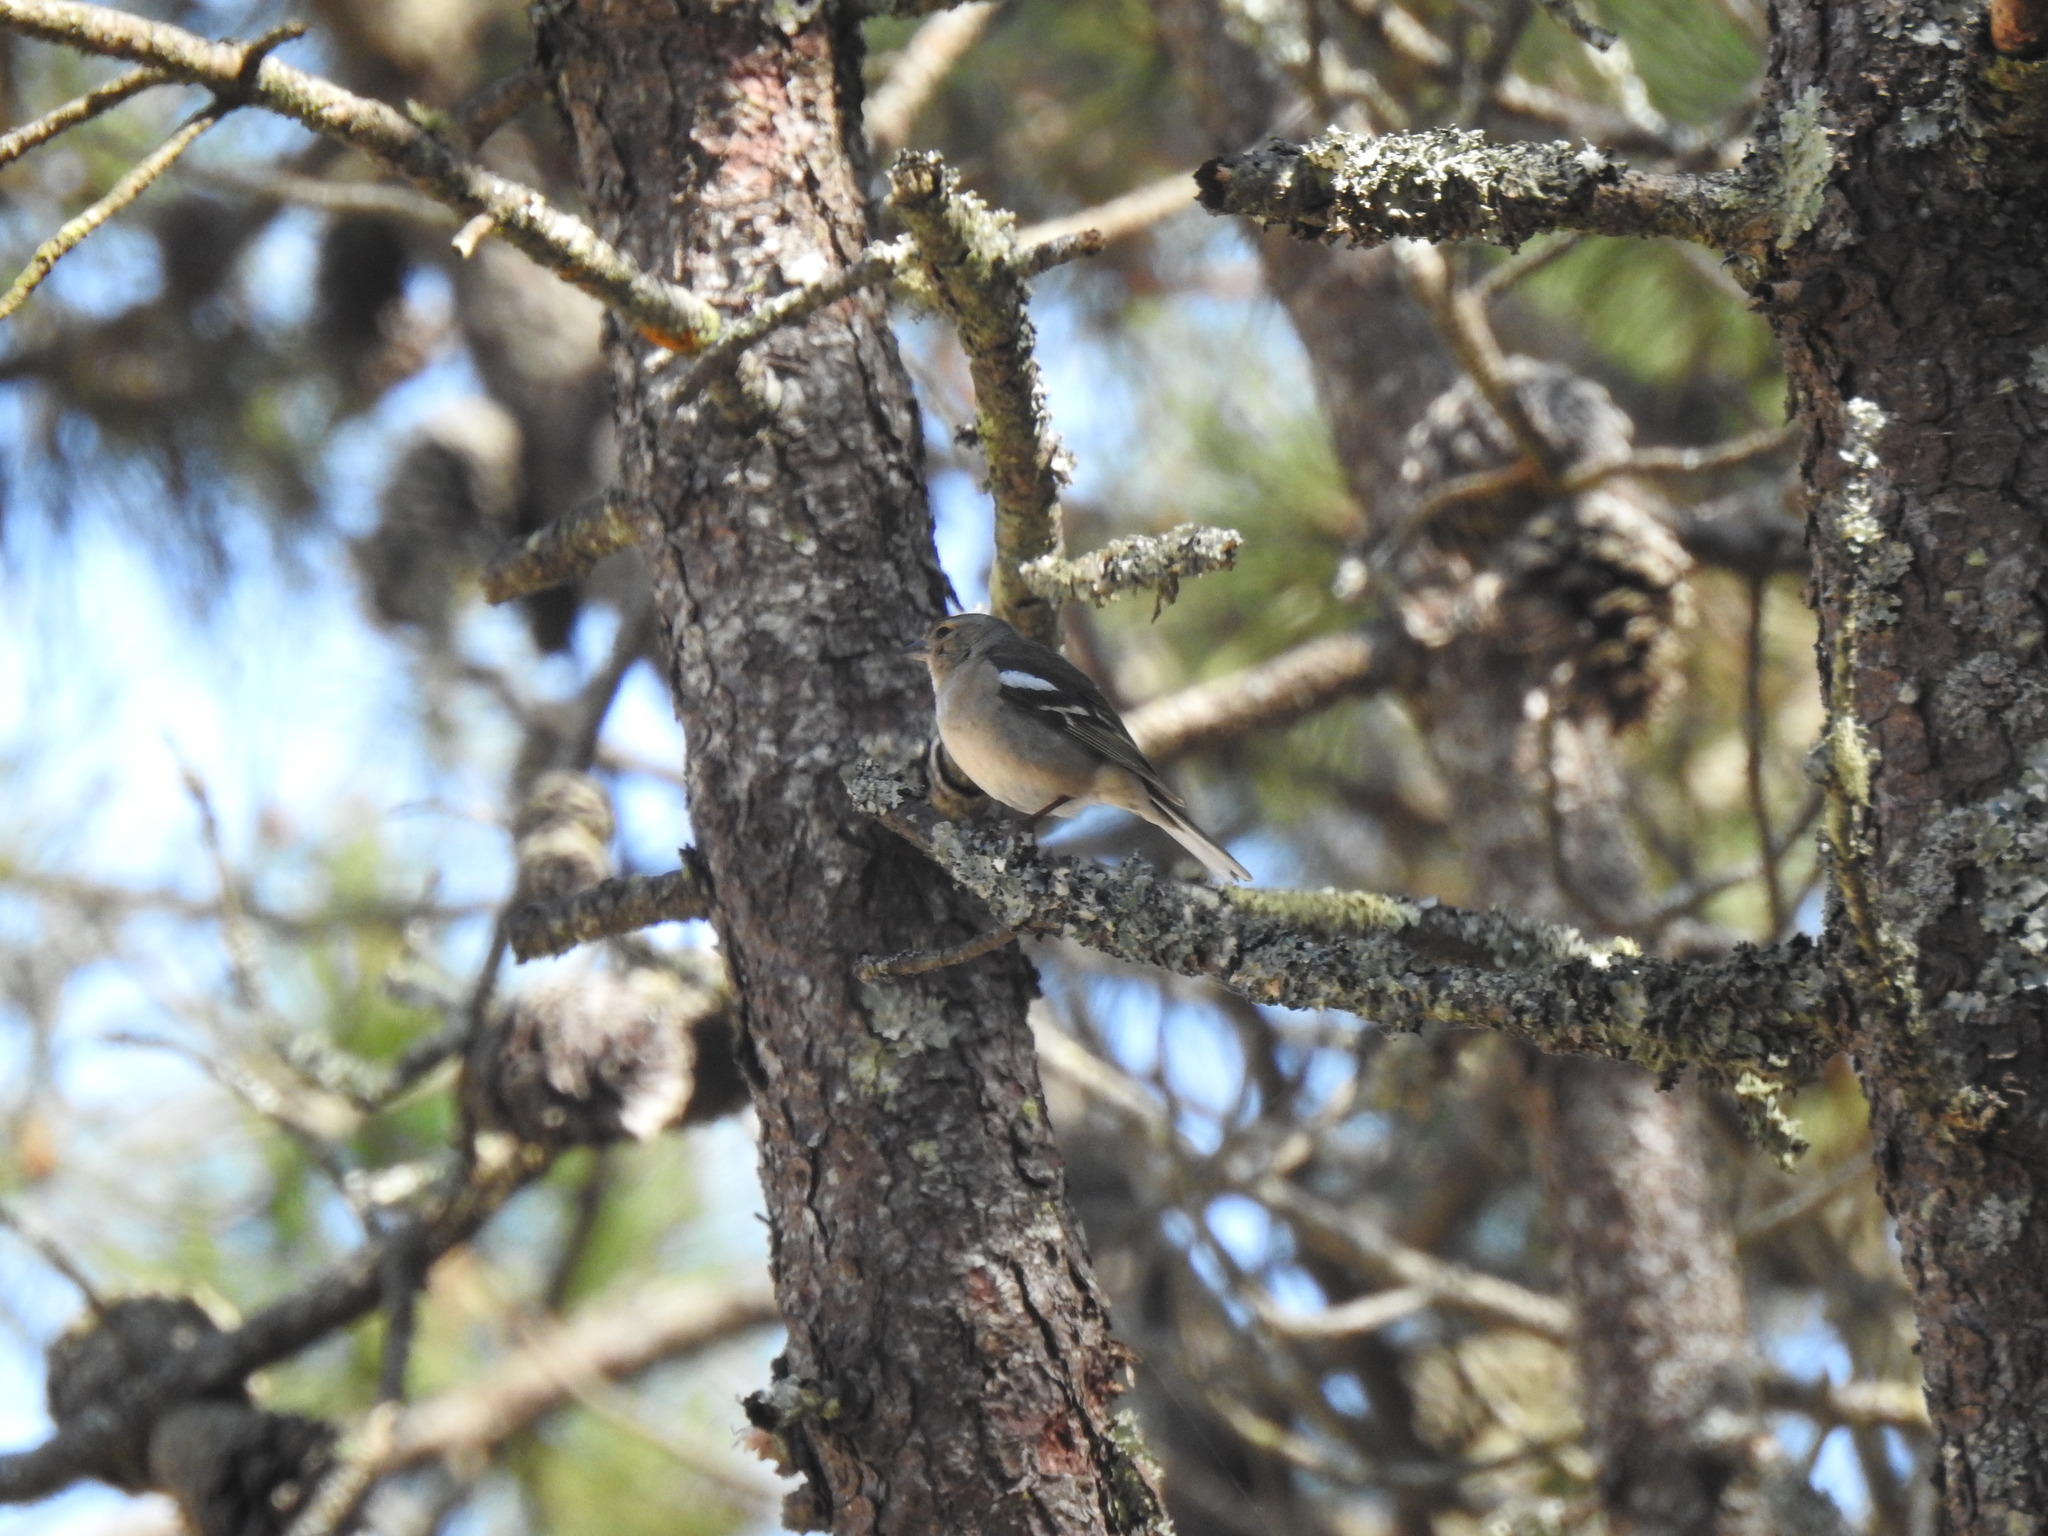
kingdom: Animalia
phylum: Chordata
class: Aves
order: Passeriformes
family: Fringillidae
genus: Fringilla
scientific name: Fringilla coelebs
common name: Common chaffinch
